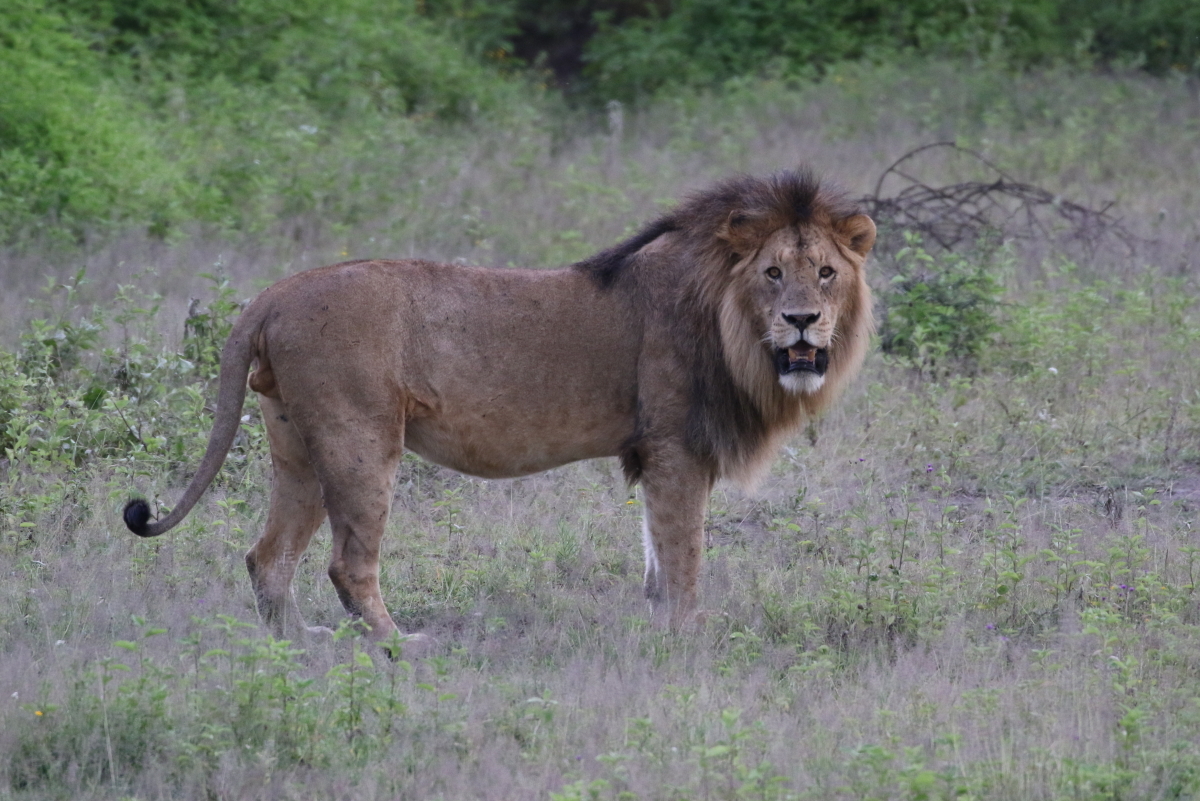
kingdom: Animalia
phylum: Chordata
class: Mammalia
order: Carnivora
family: Felidae
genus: Panthera
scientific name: Panthera leo
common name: Lion
